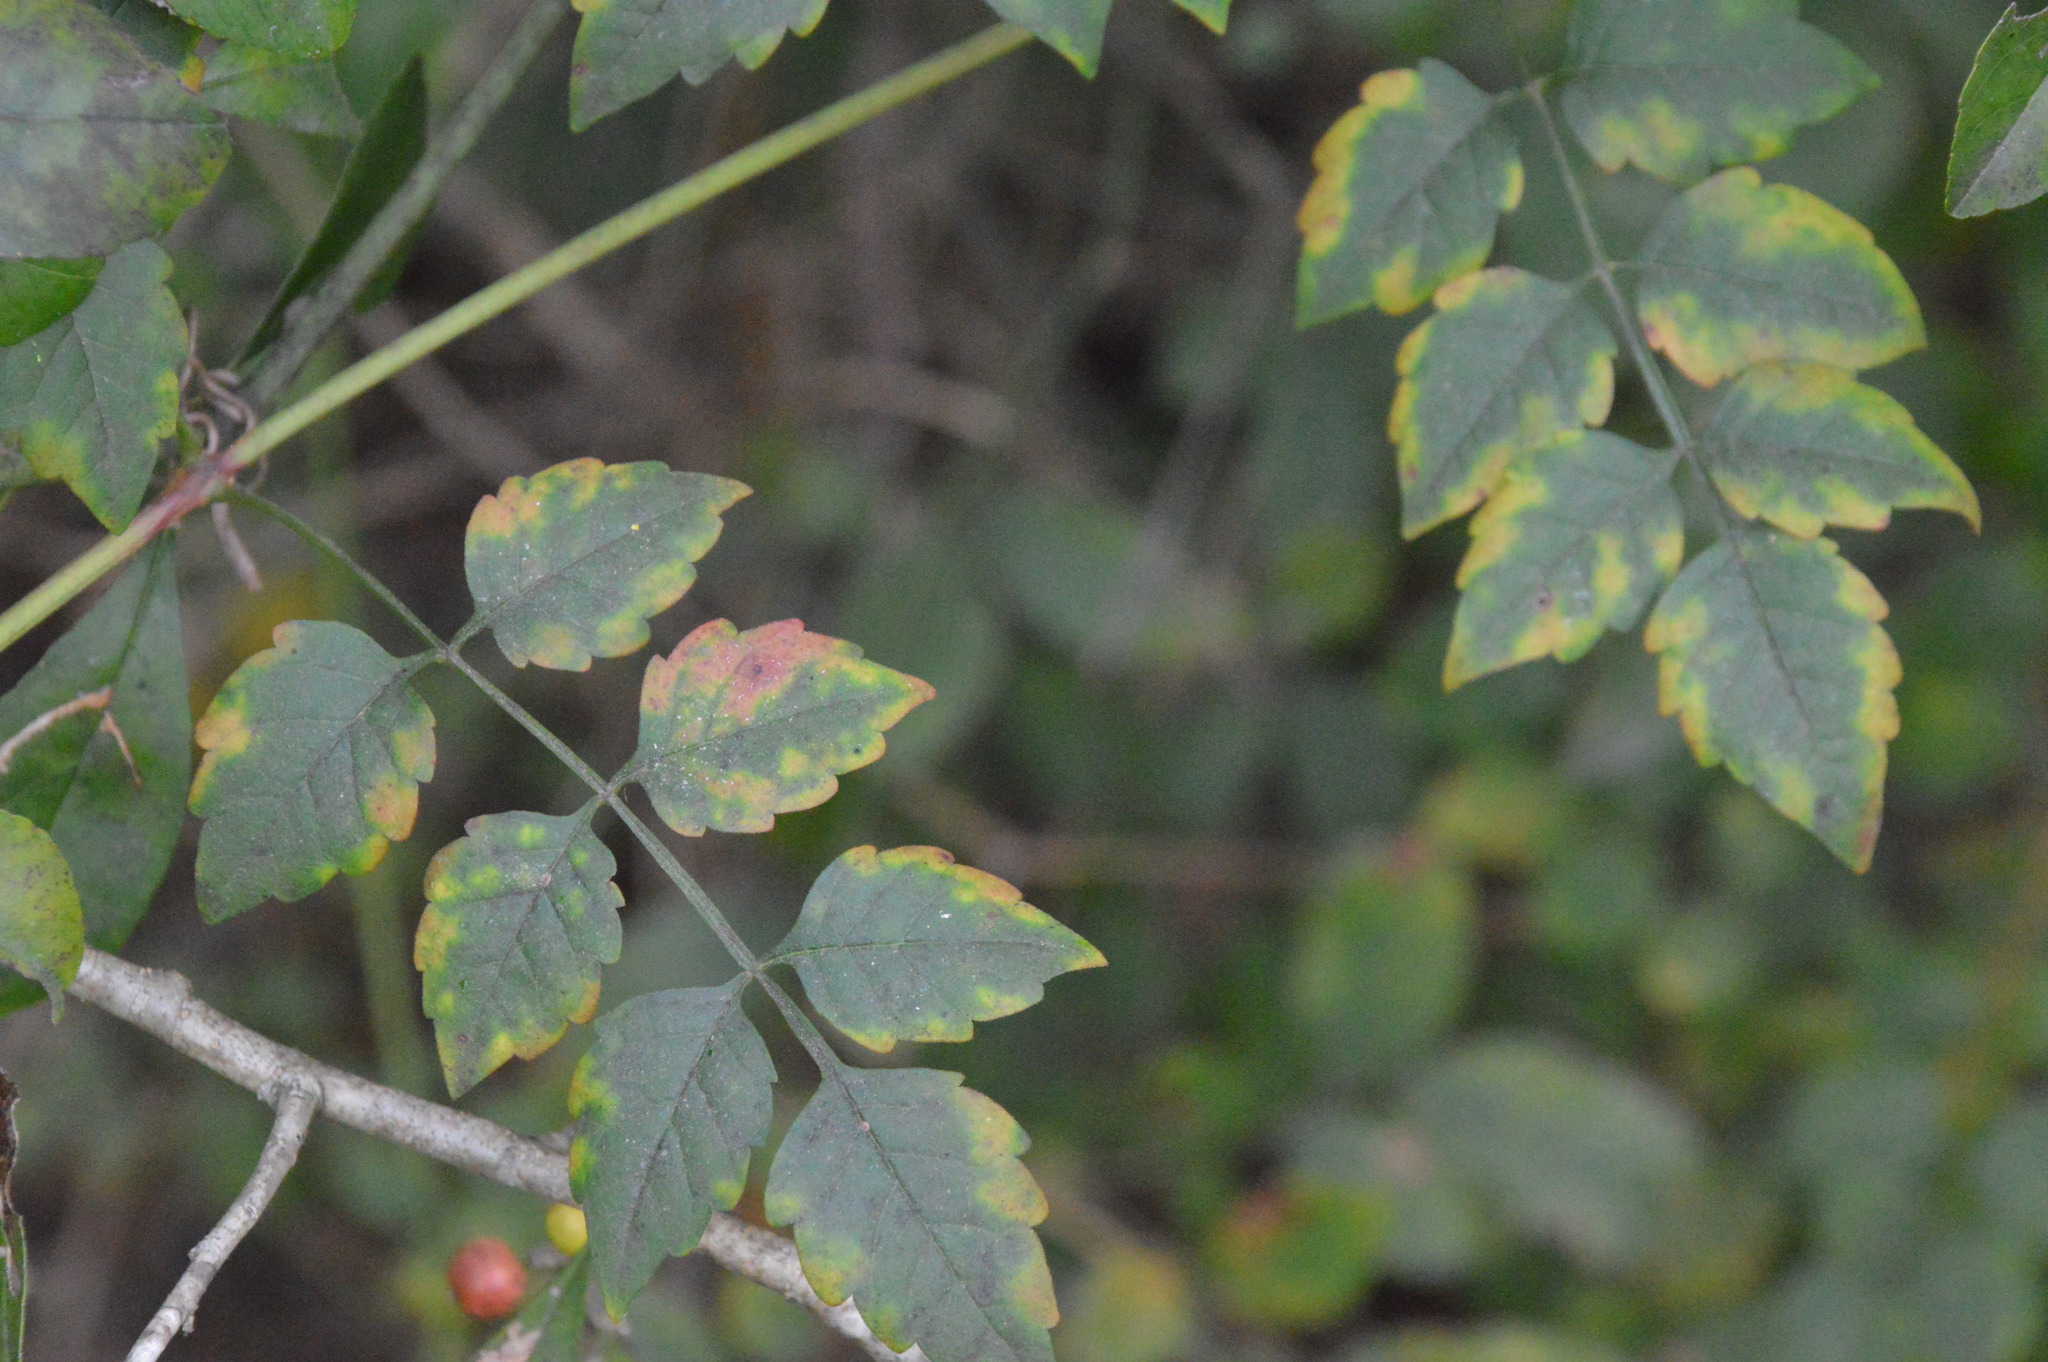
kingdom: Plantae
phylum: Tracheophyta
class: Magnoliopsida
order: Lamiales
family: Bignoniaceae
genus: Campsis
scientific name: Campsis radicans
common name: Trumpet-creeper
